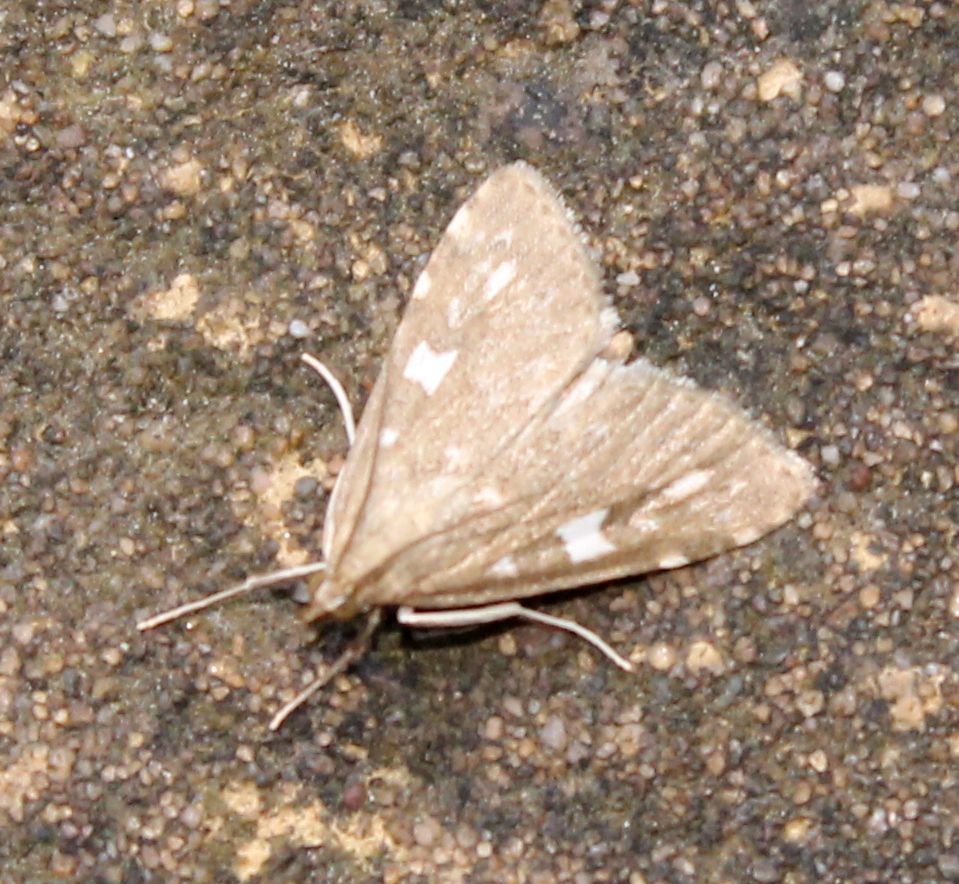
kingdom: Animalia
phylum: Arthropoda
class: Insecta
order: Lepidoptera
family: Crambidae
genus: Udea
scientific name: Udea olivalis
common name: Olive pearl
